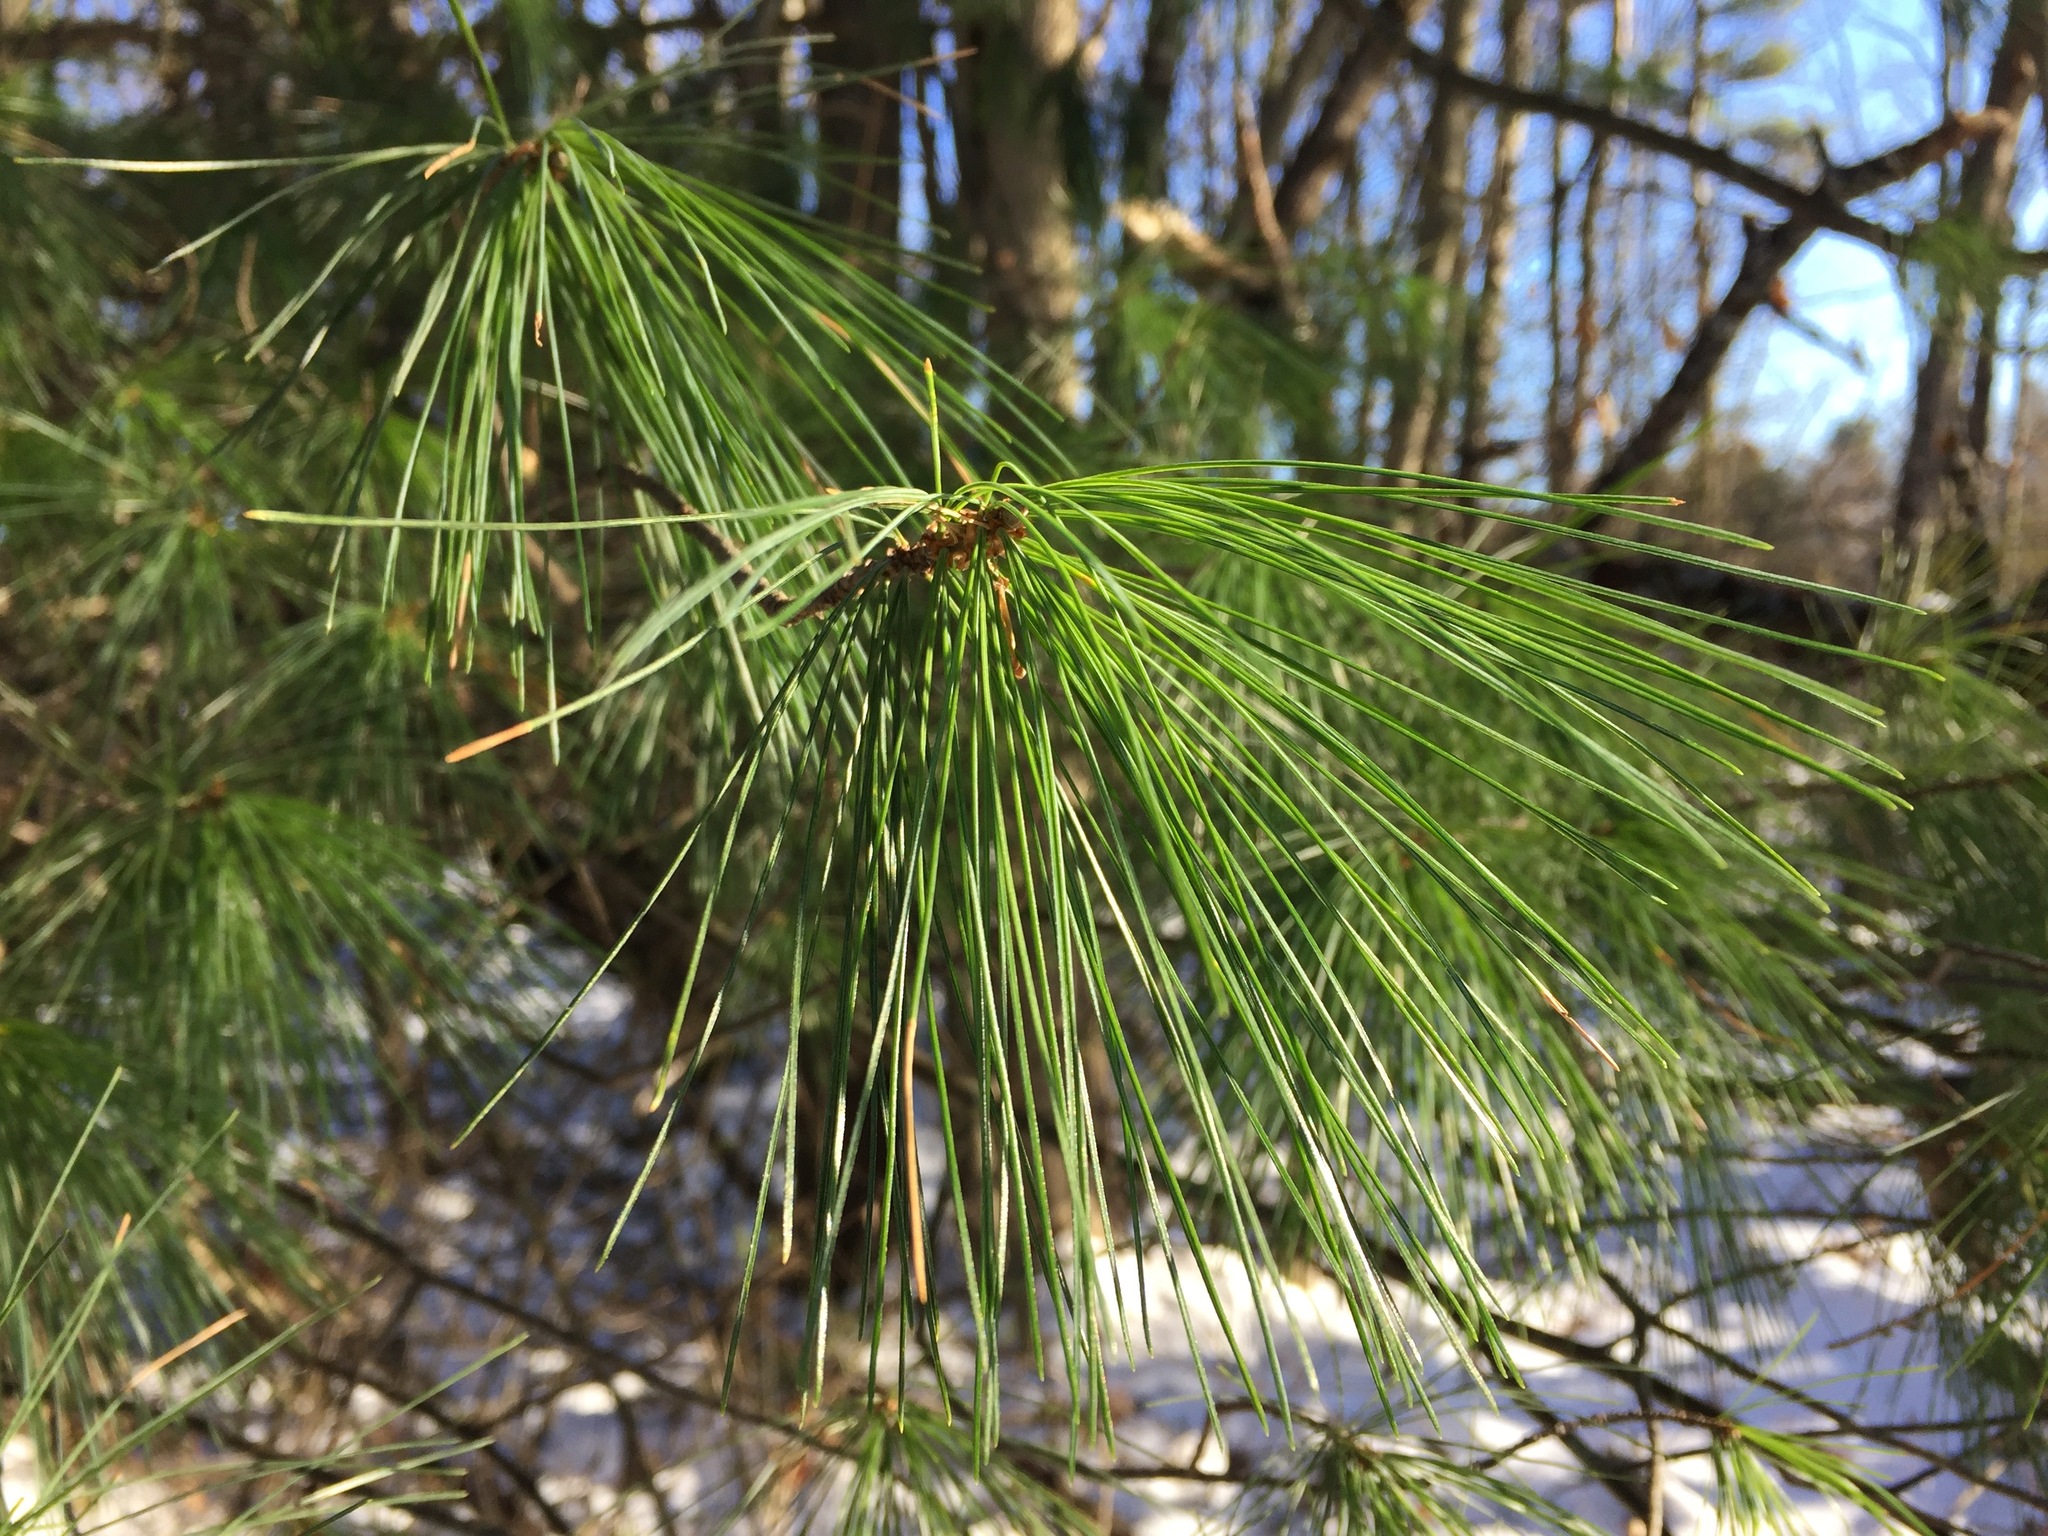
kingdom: Plantae
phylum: Tracheophyta
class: Pinopsida
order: Pinales
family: Pinaceae
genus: Pinus
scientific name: Pinus strobus
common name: Weymouth pine
